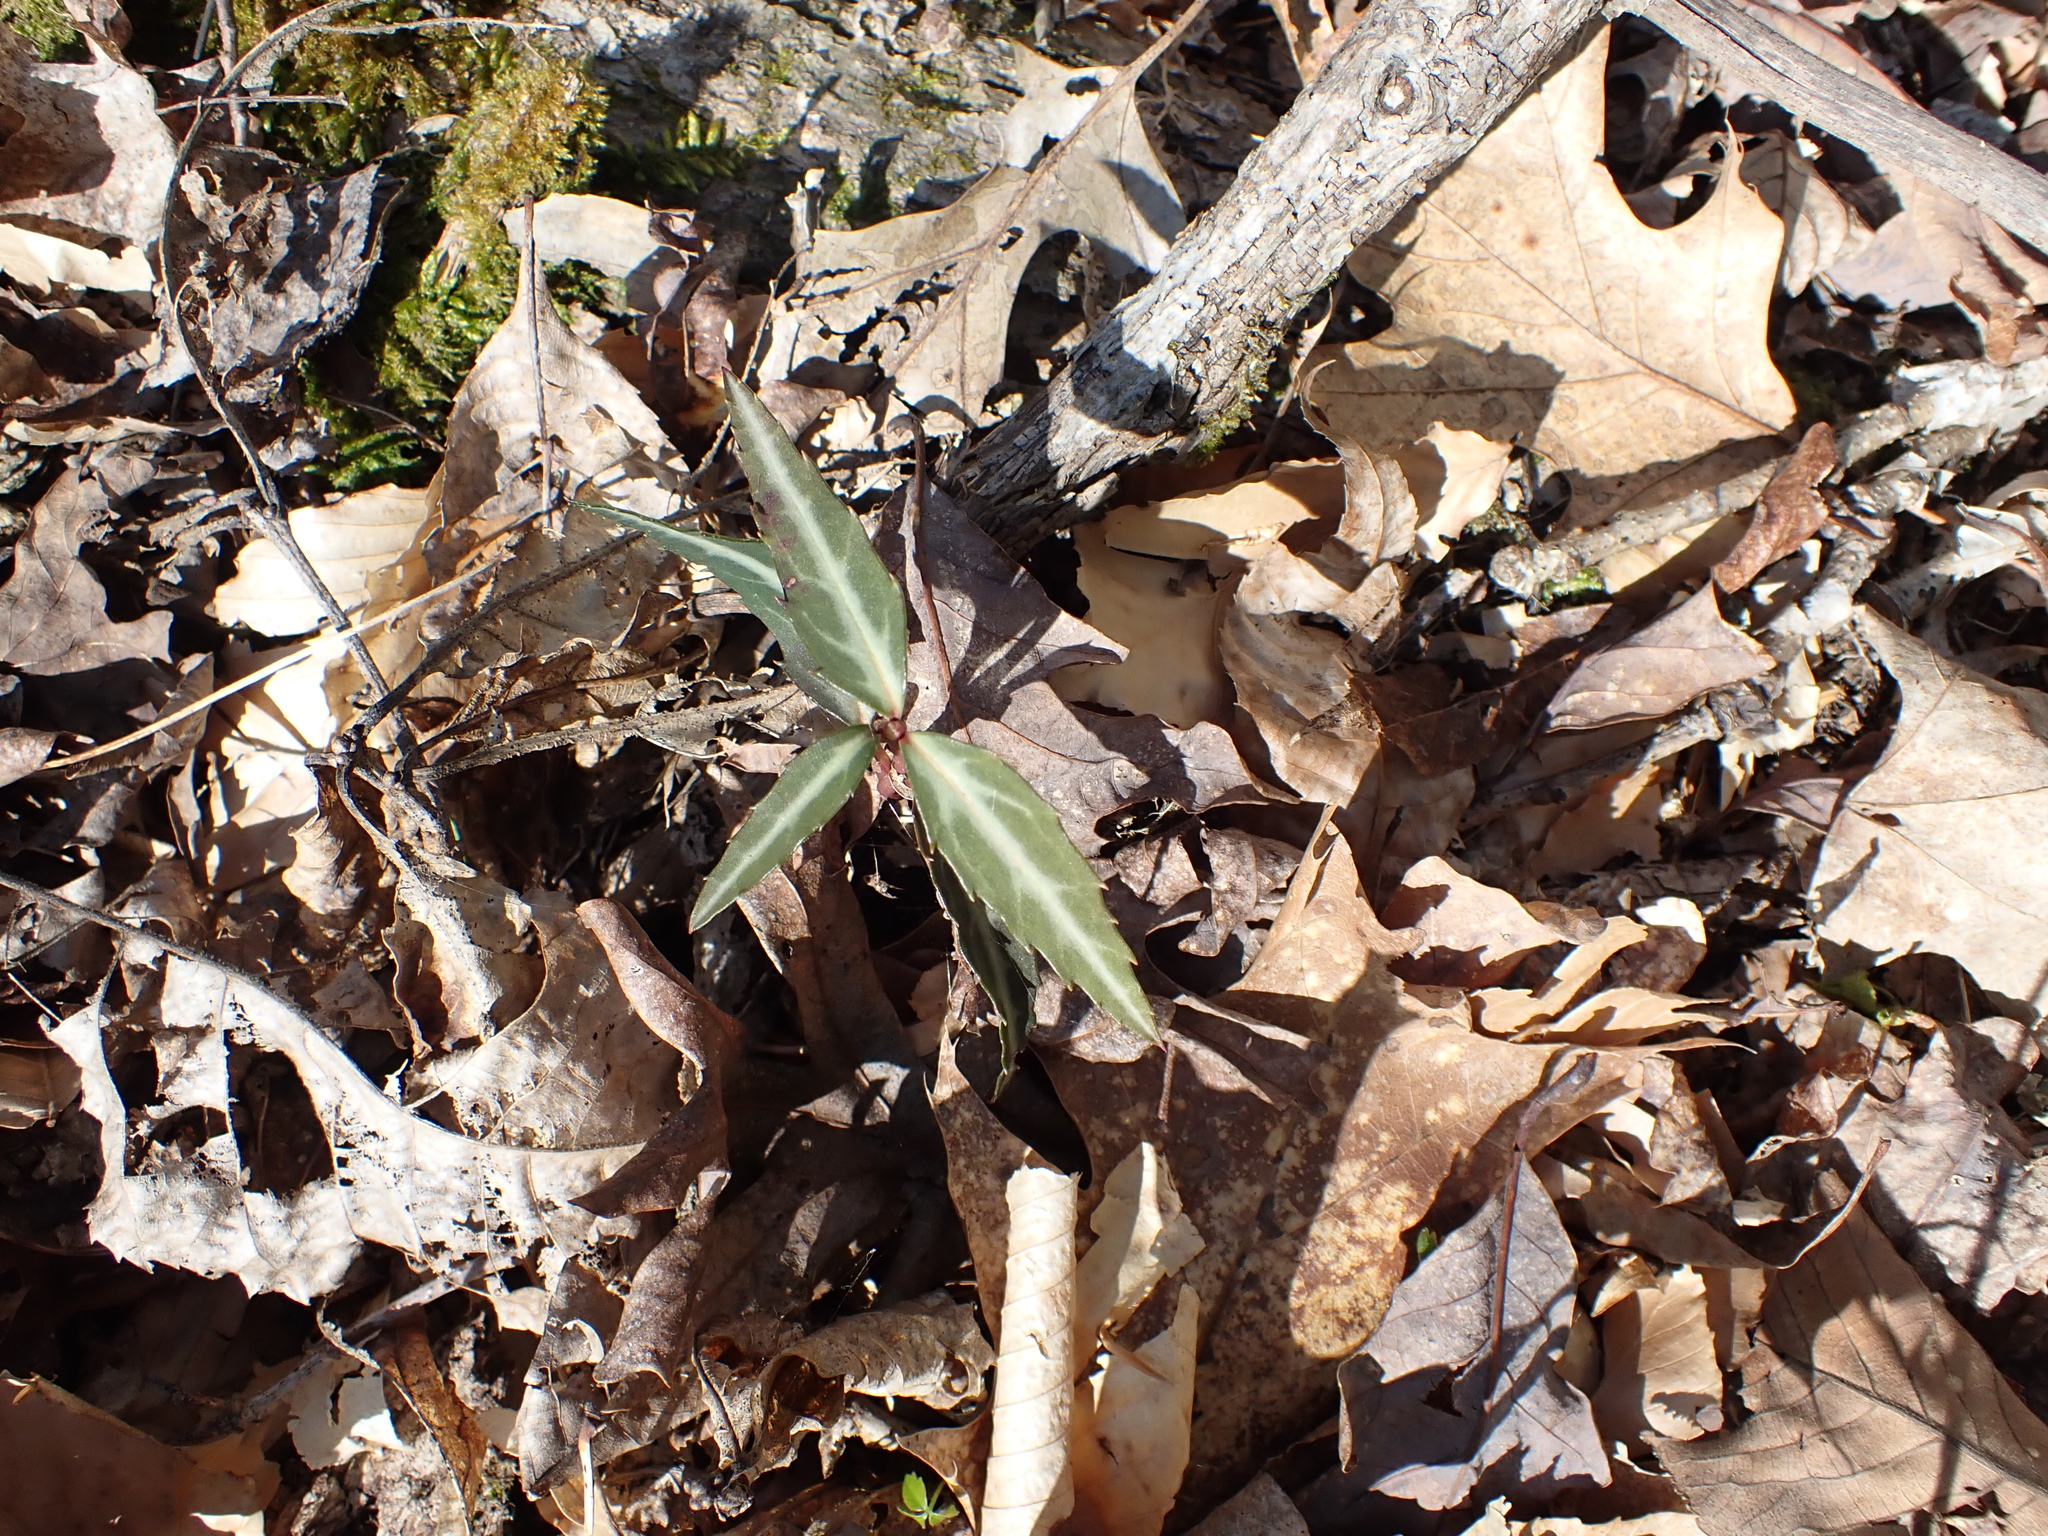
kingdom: Plantae
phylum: Tracheophyta
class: Magnoliopsida
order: Ericales
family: Ericaceae
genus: Chimaphila
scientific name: Chimaphila maculata
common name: Spotted pipsissewa
